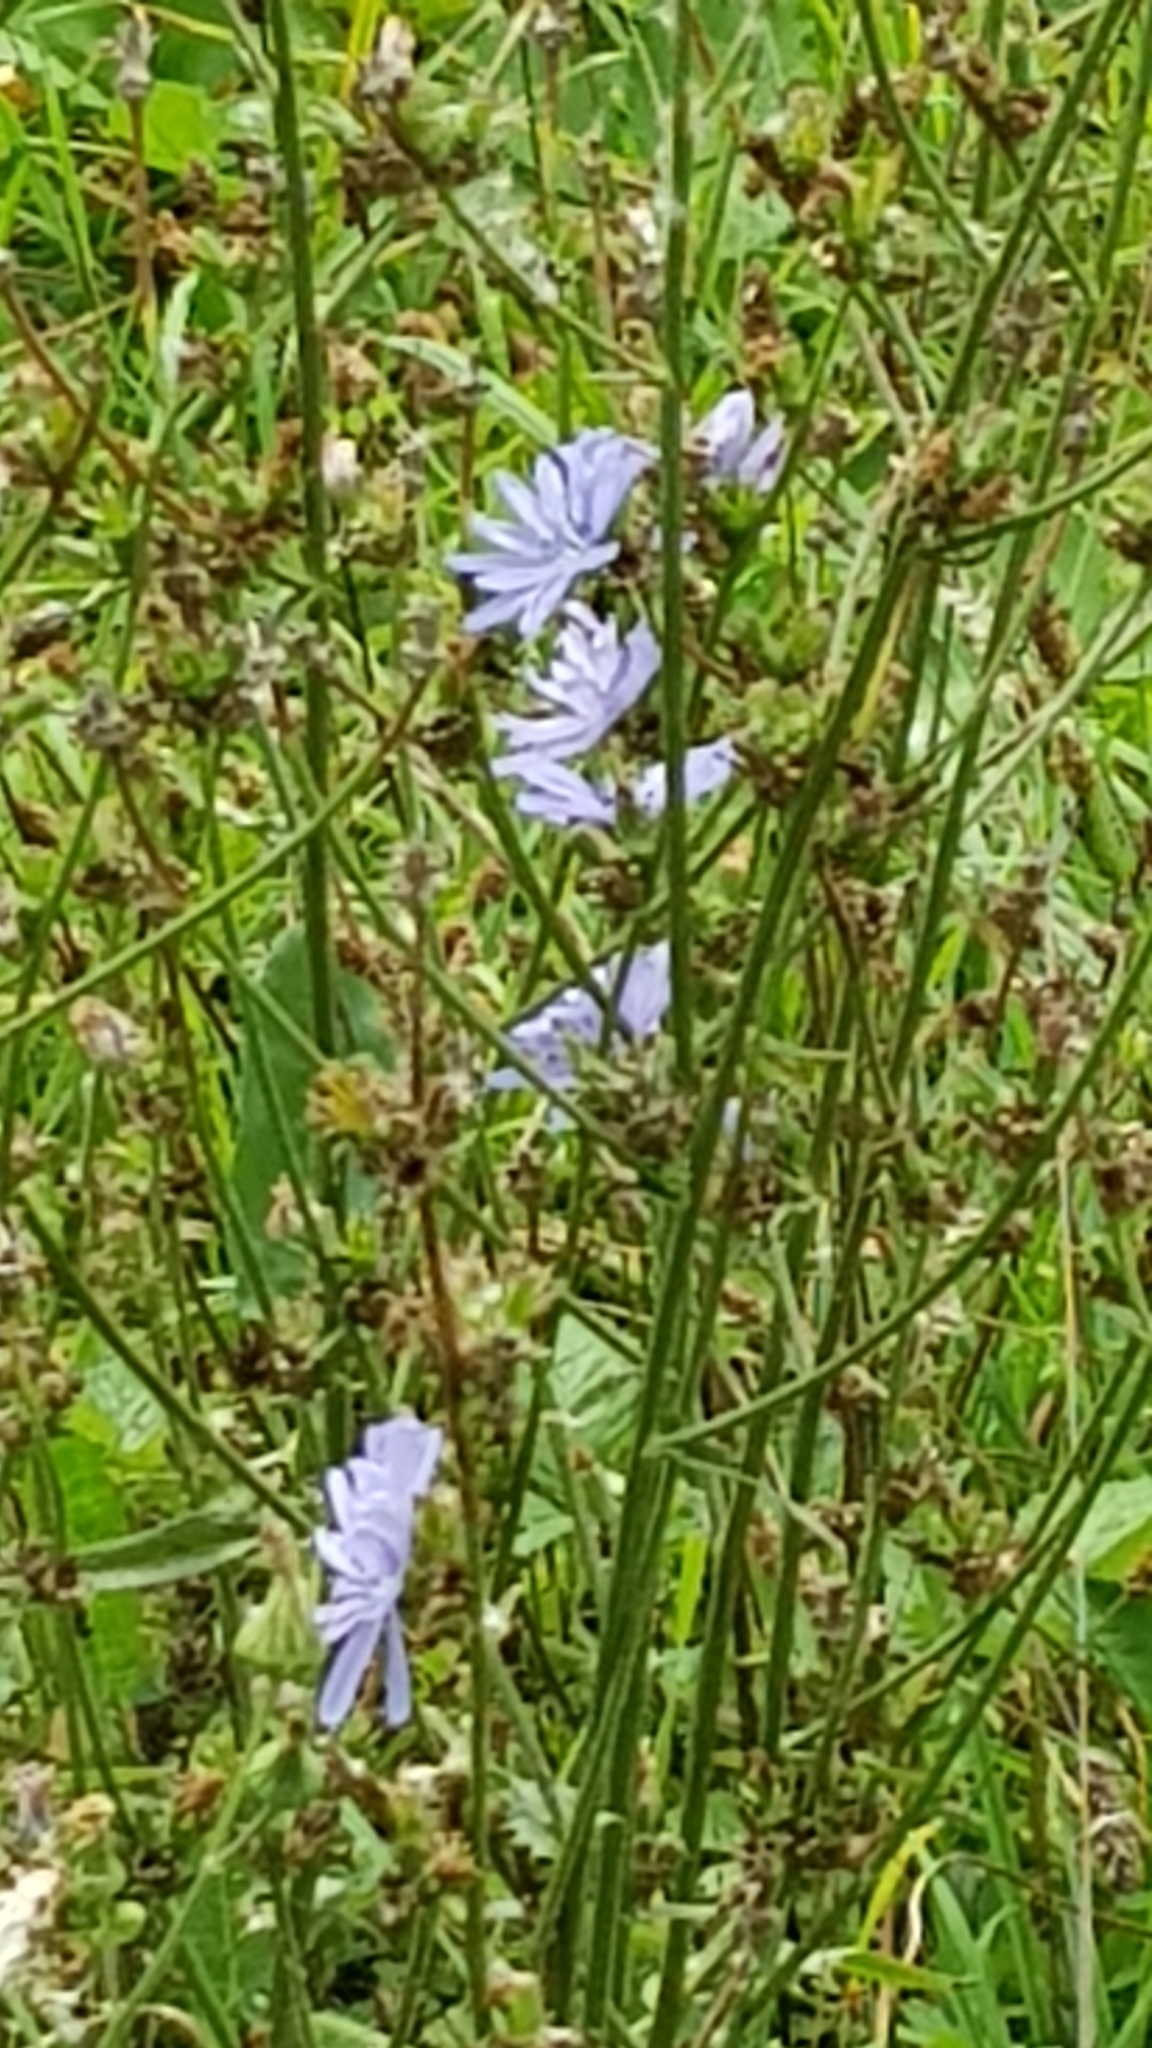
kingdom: Plantae
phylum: Tracheophyta
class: Magnoliopsida
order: Asterales
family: Asteraceae
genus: Cichorium
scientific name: Cichorium intybus
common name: Chicory
